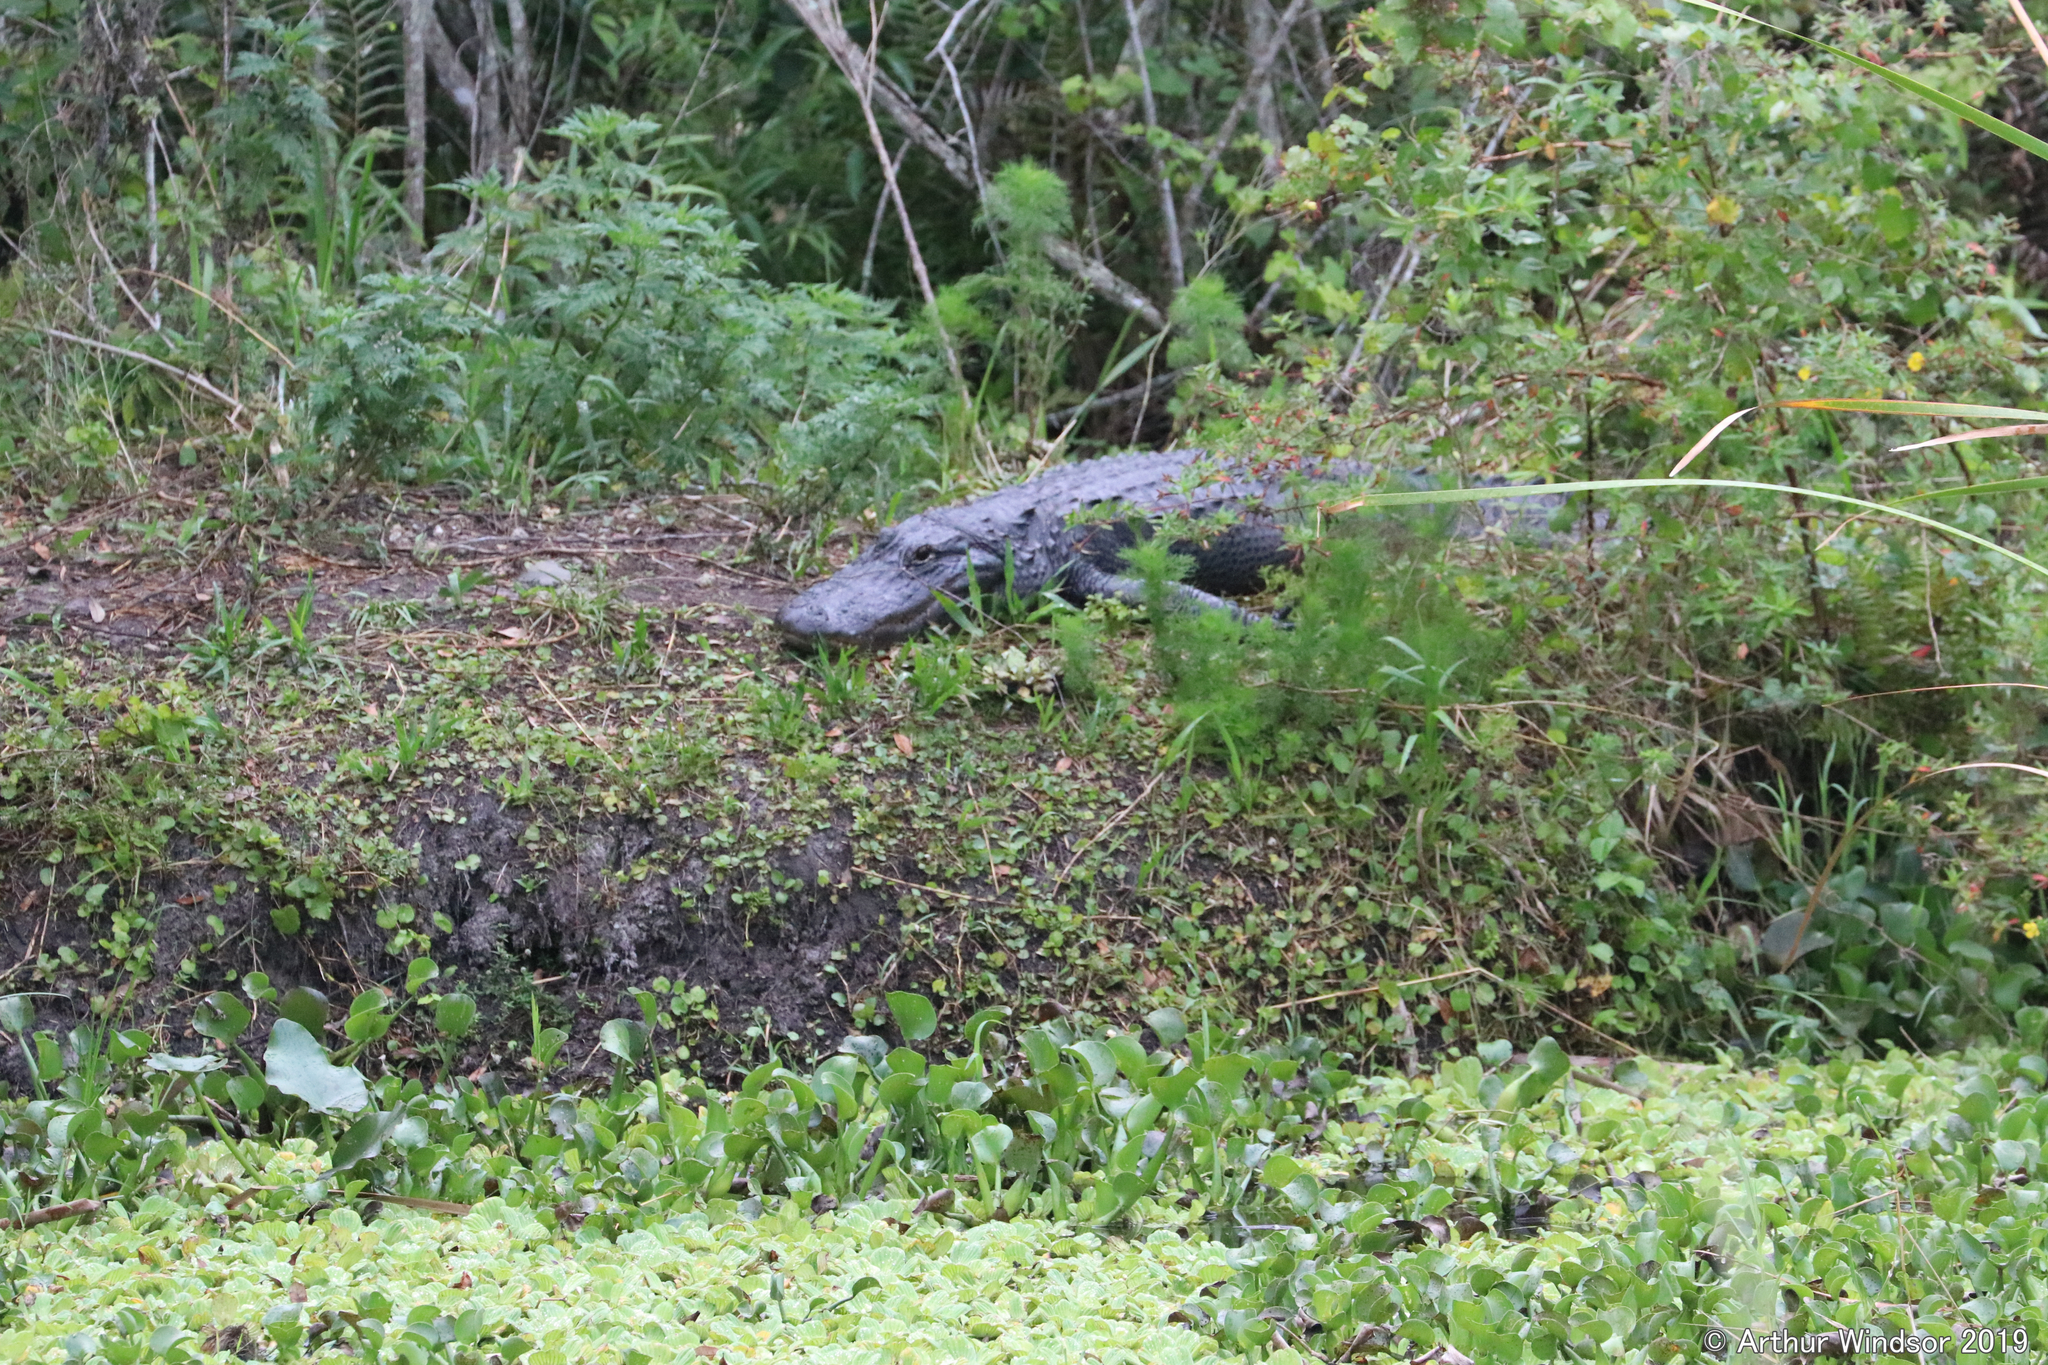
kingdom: Animalia
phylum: Chordata
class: Crocodylia
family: Alligatoridae
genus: Alligator
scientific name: Alligator mississippiensis
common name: American alligator
